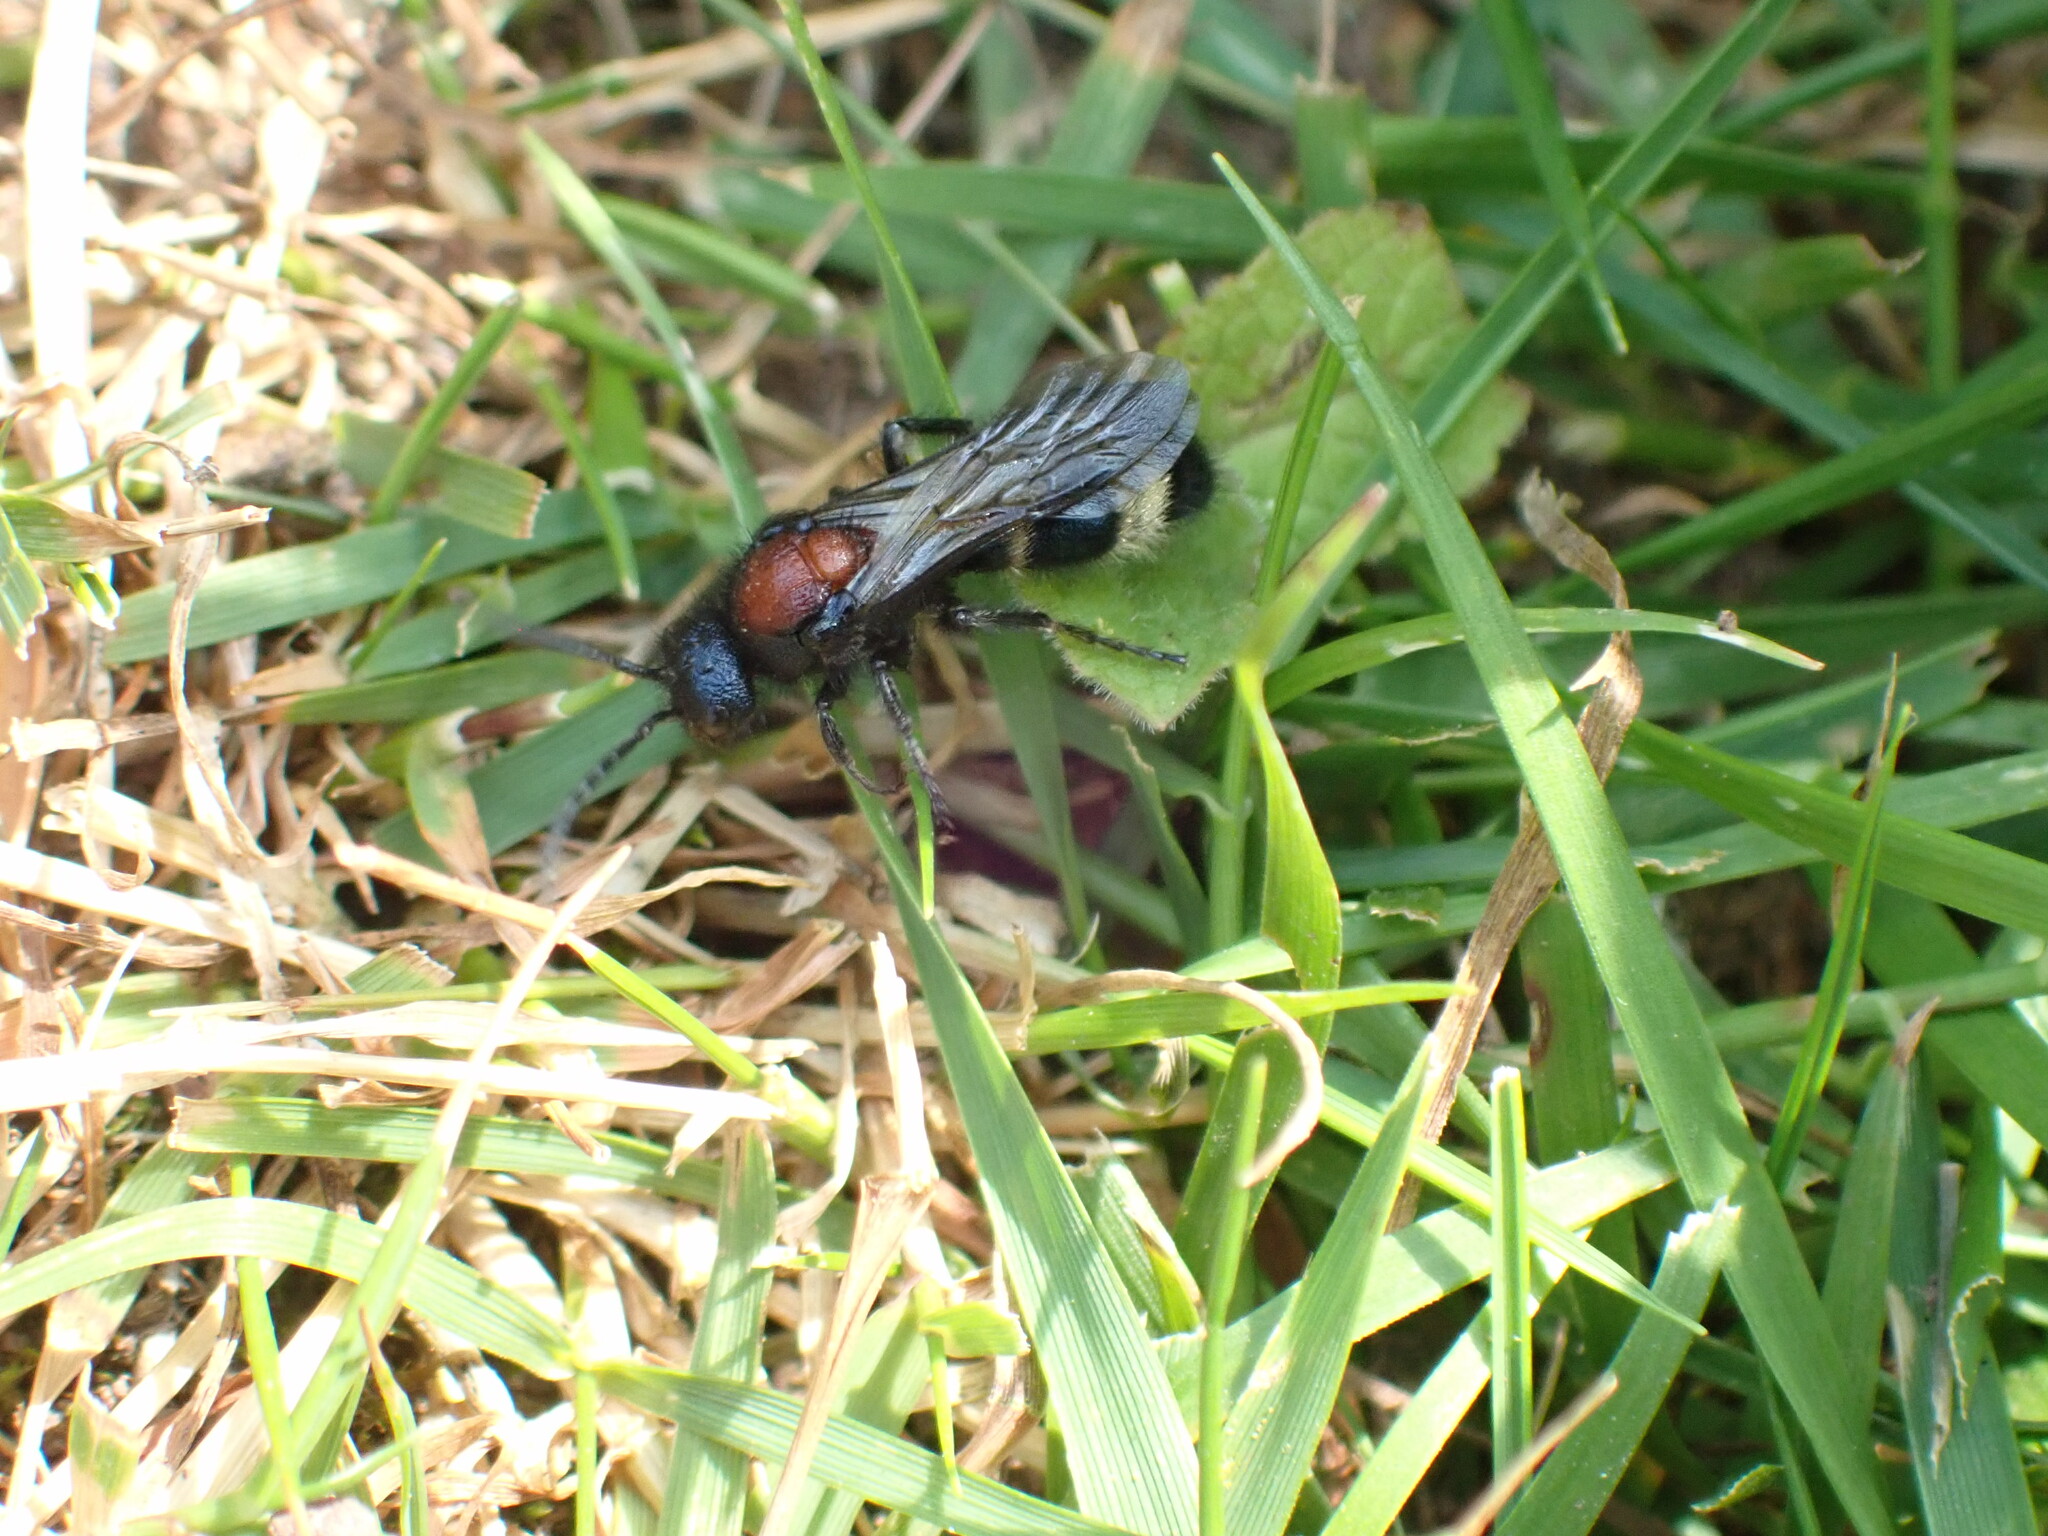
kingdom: Animalia
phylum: Arthropoda
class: Insecta
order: Hymenoptera
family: Mutillidae
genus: Mutilla
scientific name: Mutilla europaea
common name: Large velvet ant
